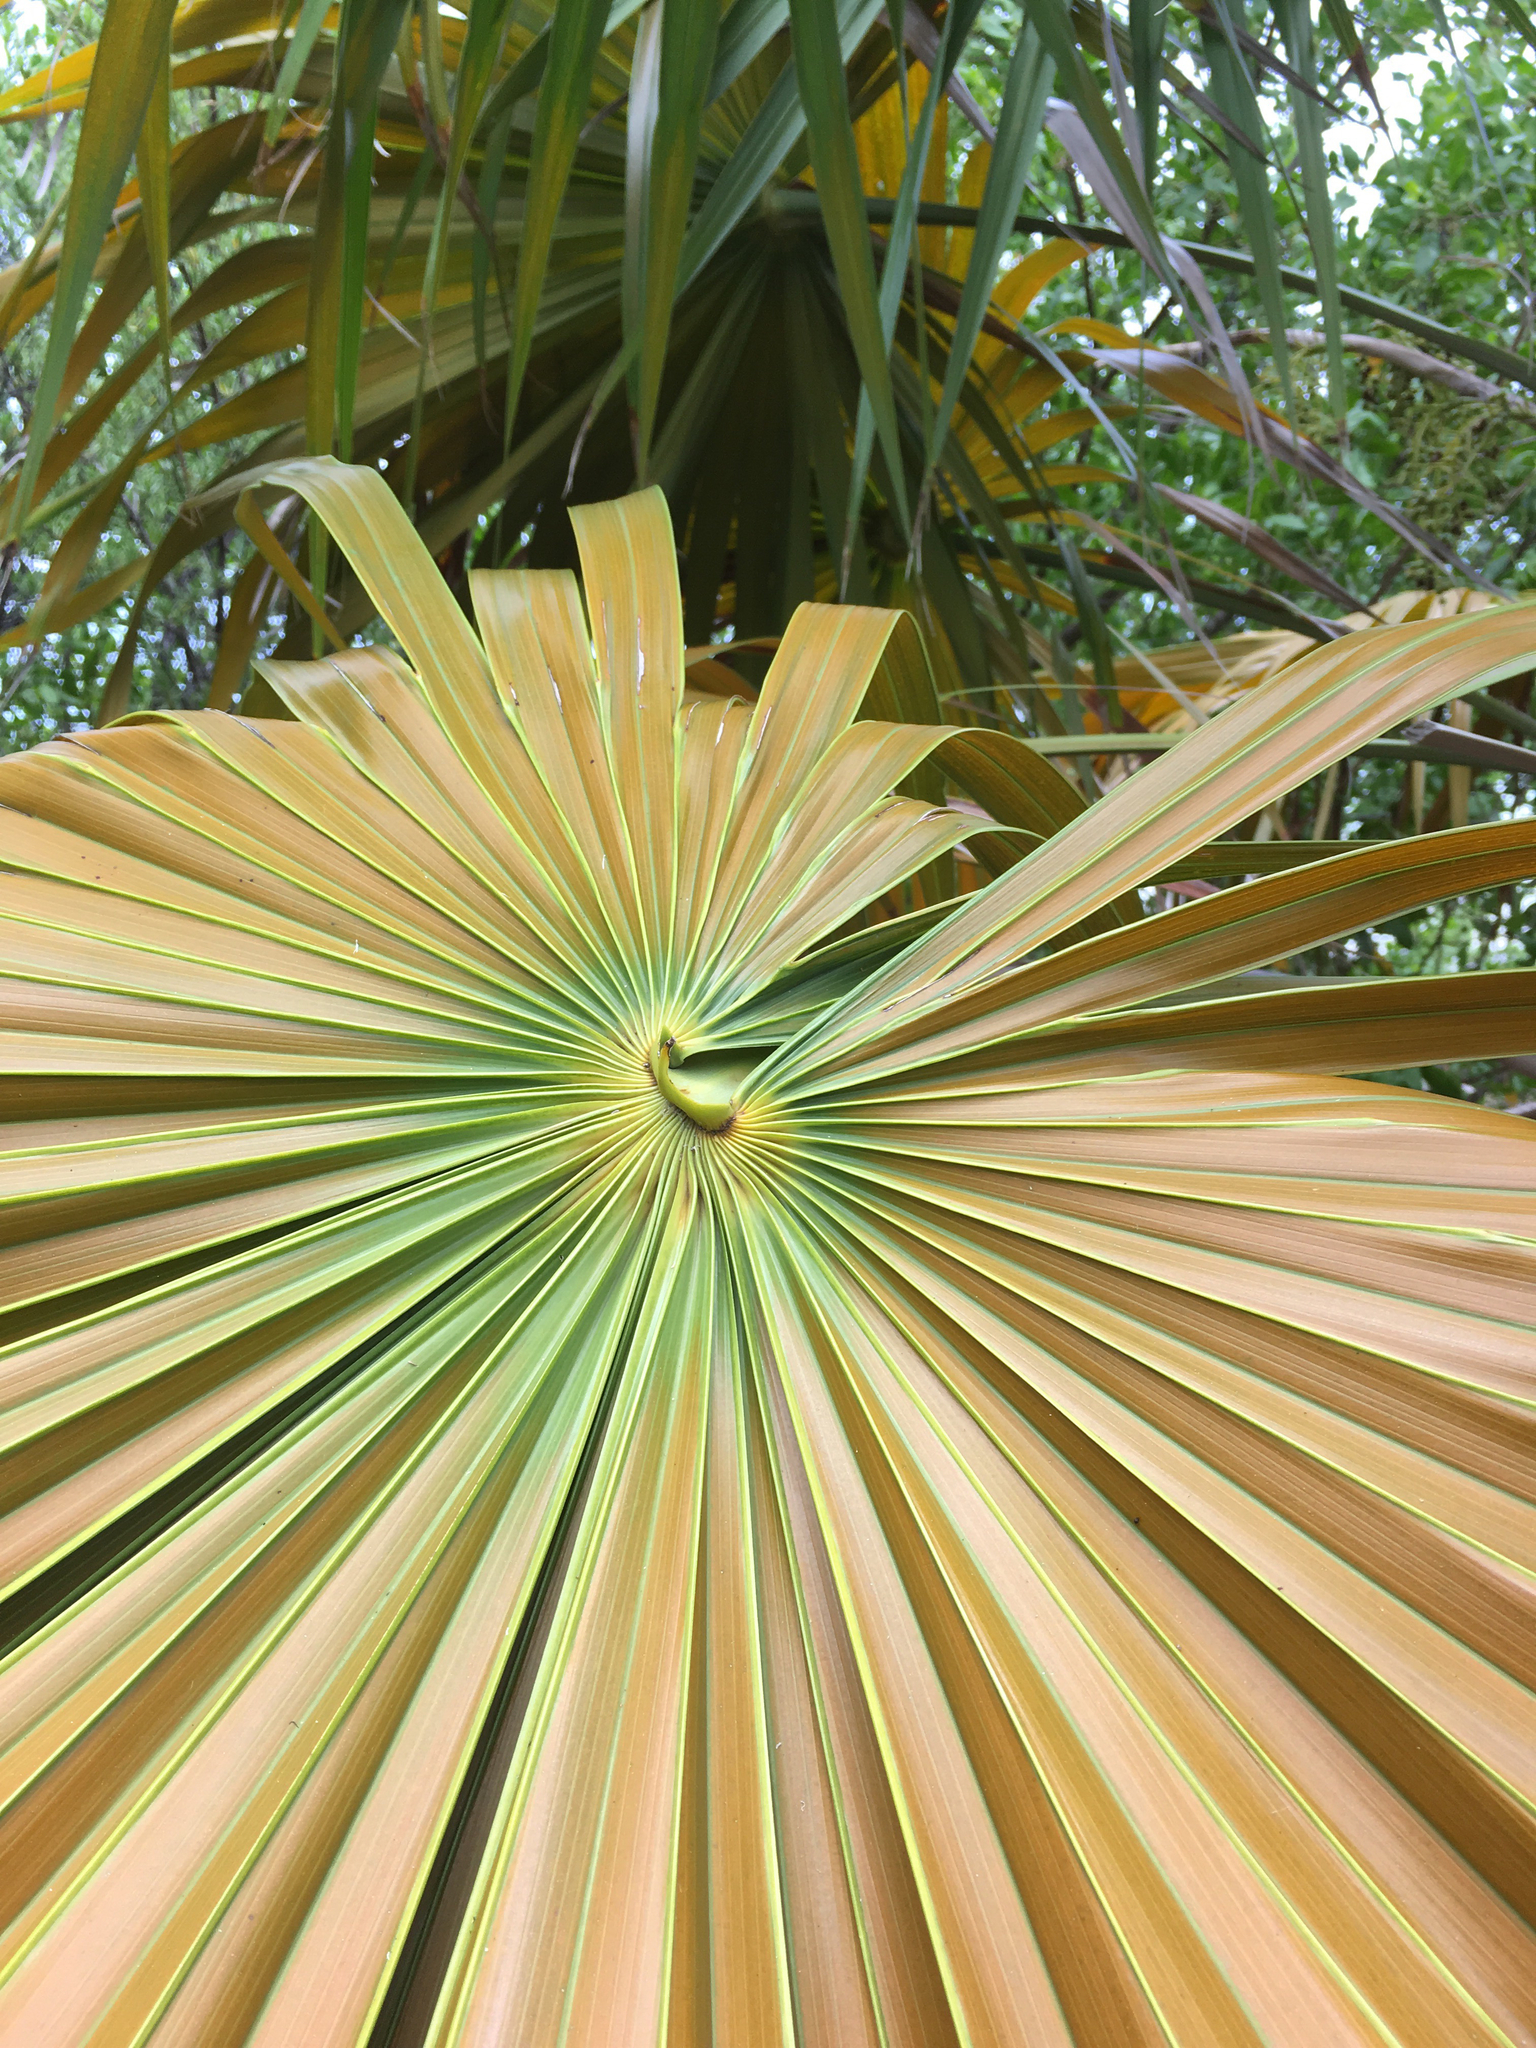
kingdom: Plantae
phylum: Tracheophyta
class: Liliopsida
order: Arecales
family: Arecaceae
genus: Thrinax
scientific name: Thrinax radiata
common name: Florida thatch
